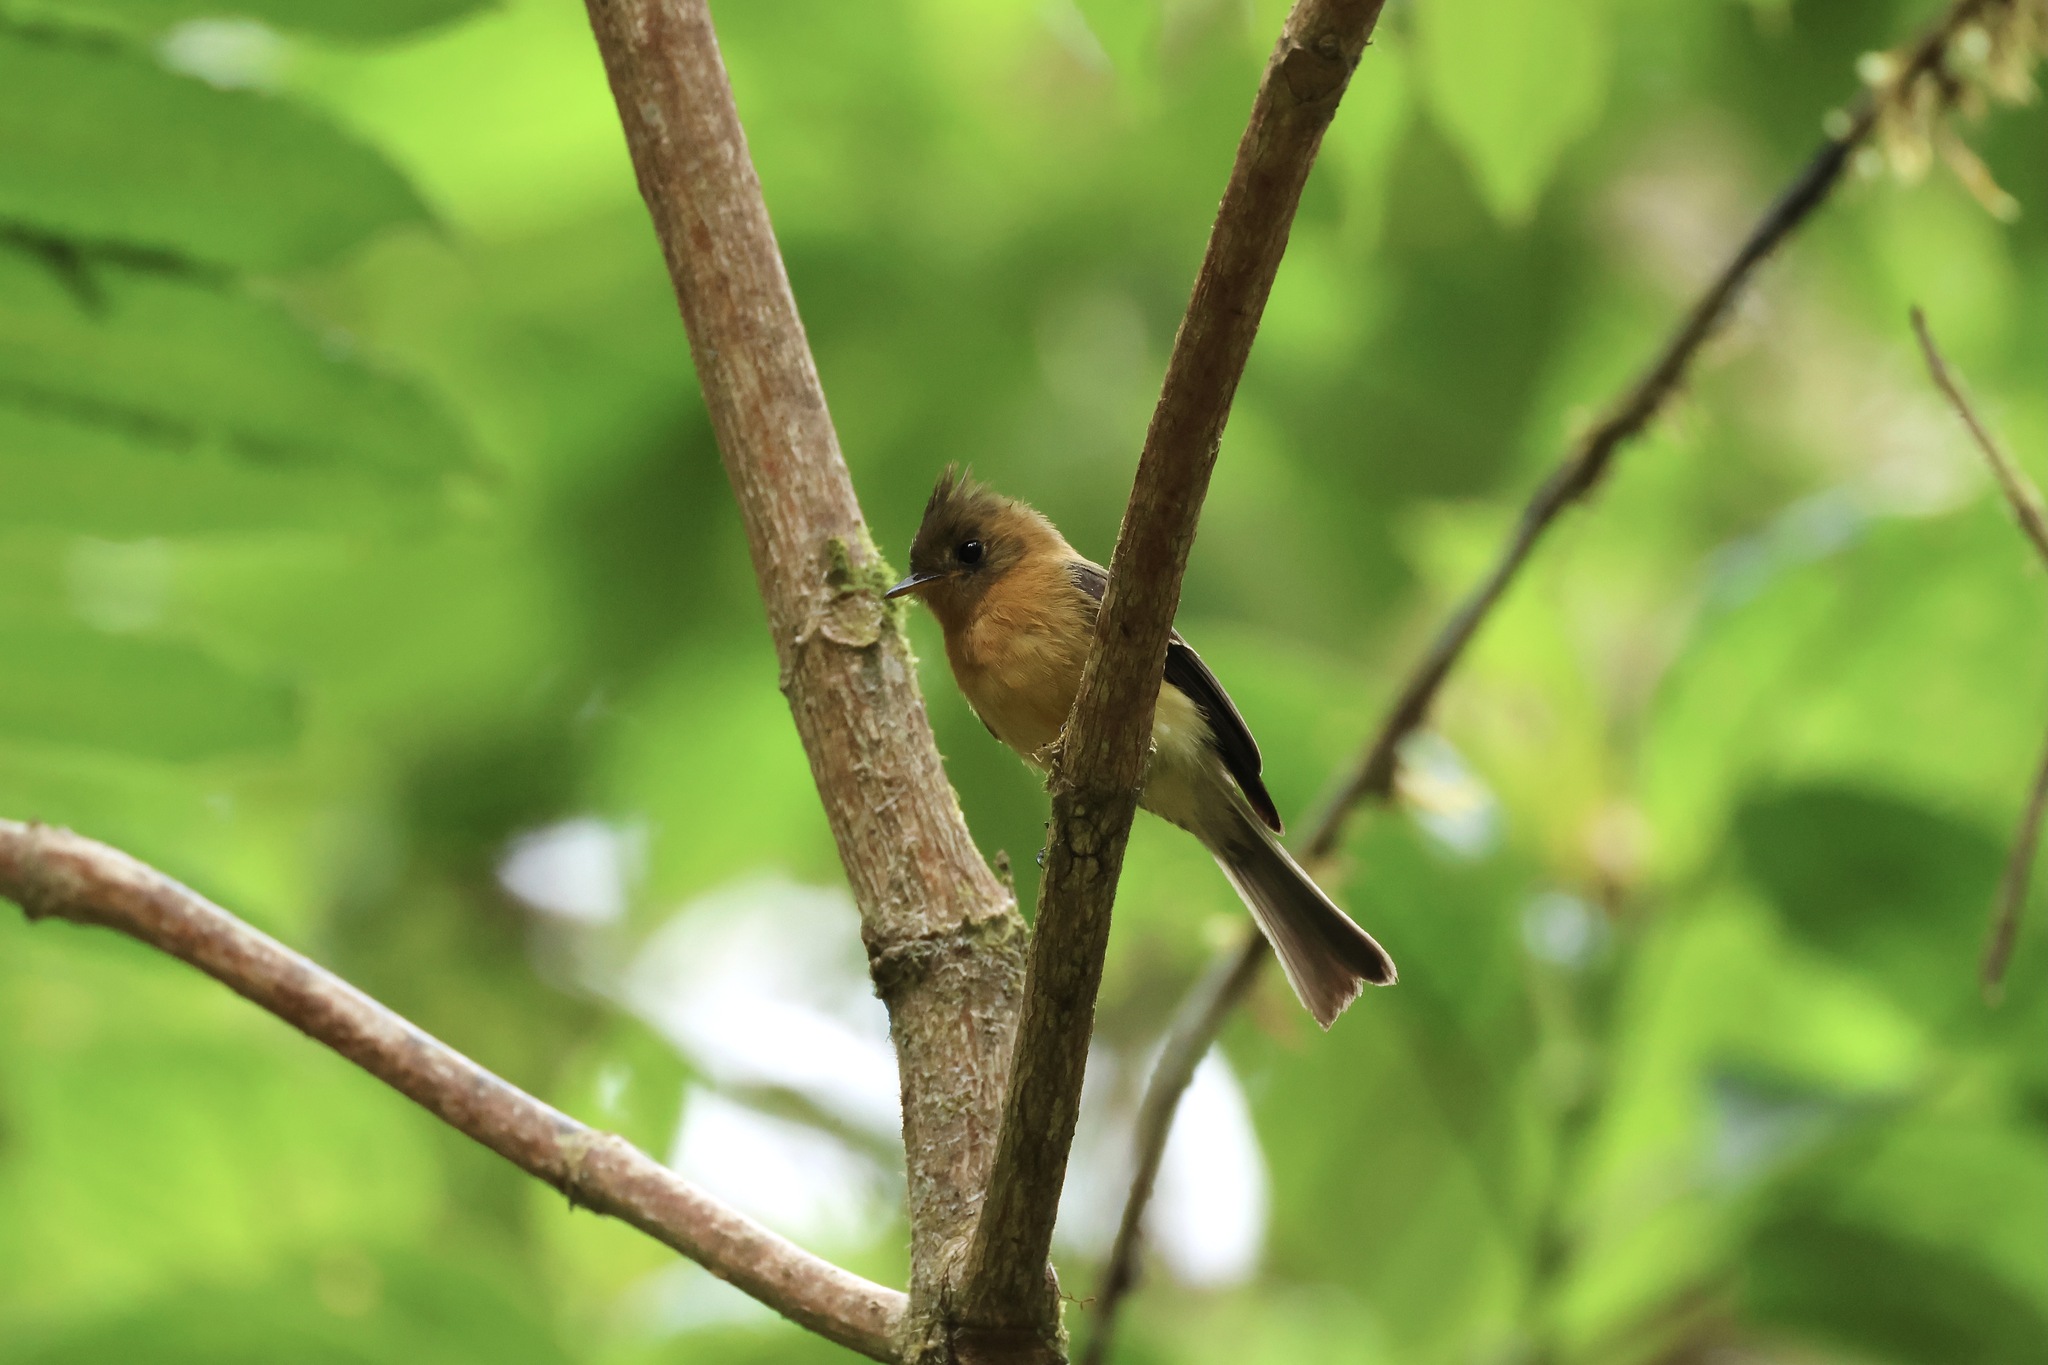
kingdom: Animalia
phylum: Chordata
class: Aves
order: Passeriformes
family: Tyrannidae
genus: Mitrephanes
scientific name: Mitrephanes phaeocercus
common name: Northern tufted flycatcher
